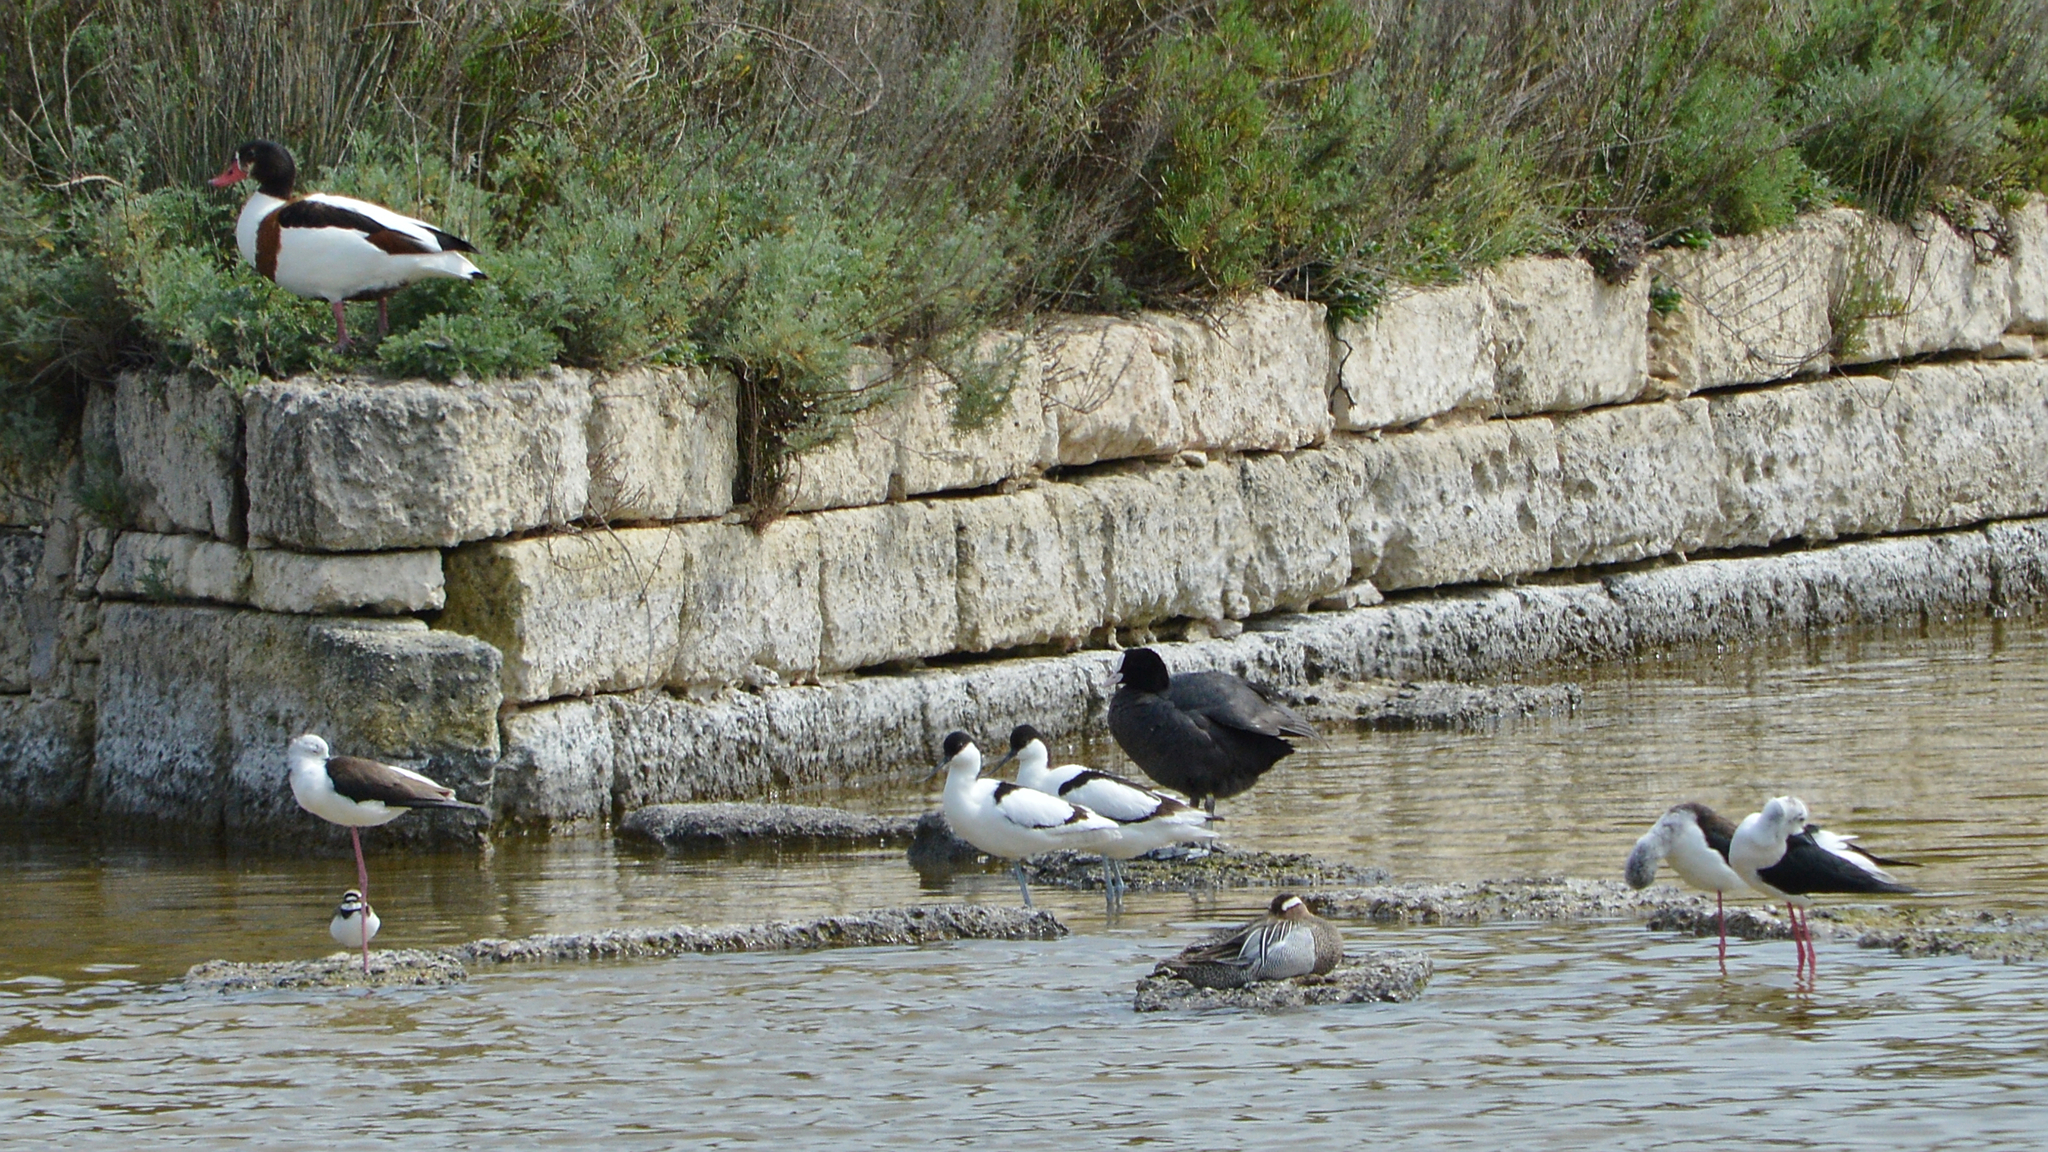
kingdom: Animalia
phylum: Chordata
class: Aves
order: Anseriformes
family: Anatidae
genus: Spatula
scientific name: Spatula querquedula
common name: Garganey
